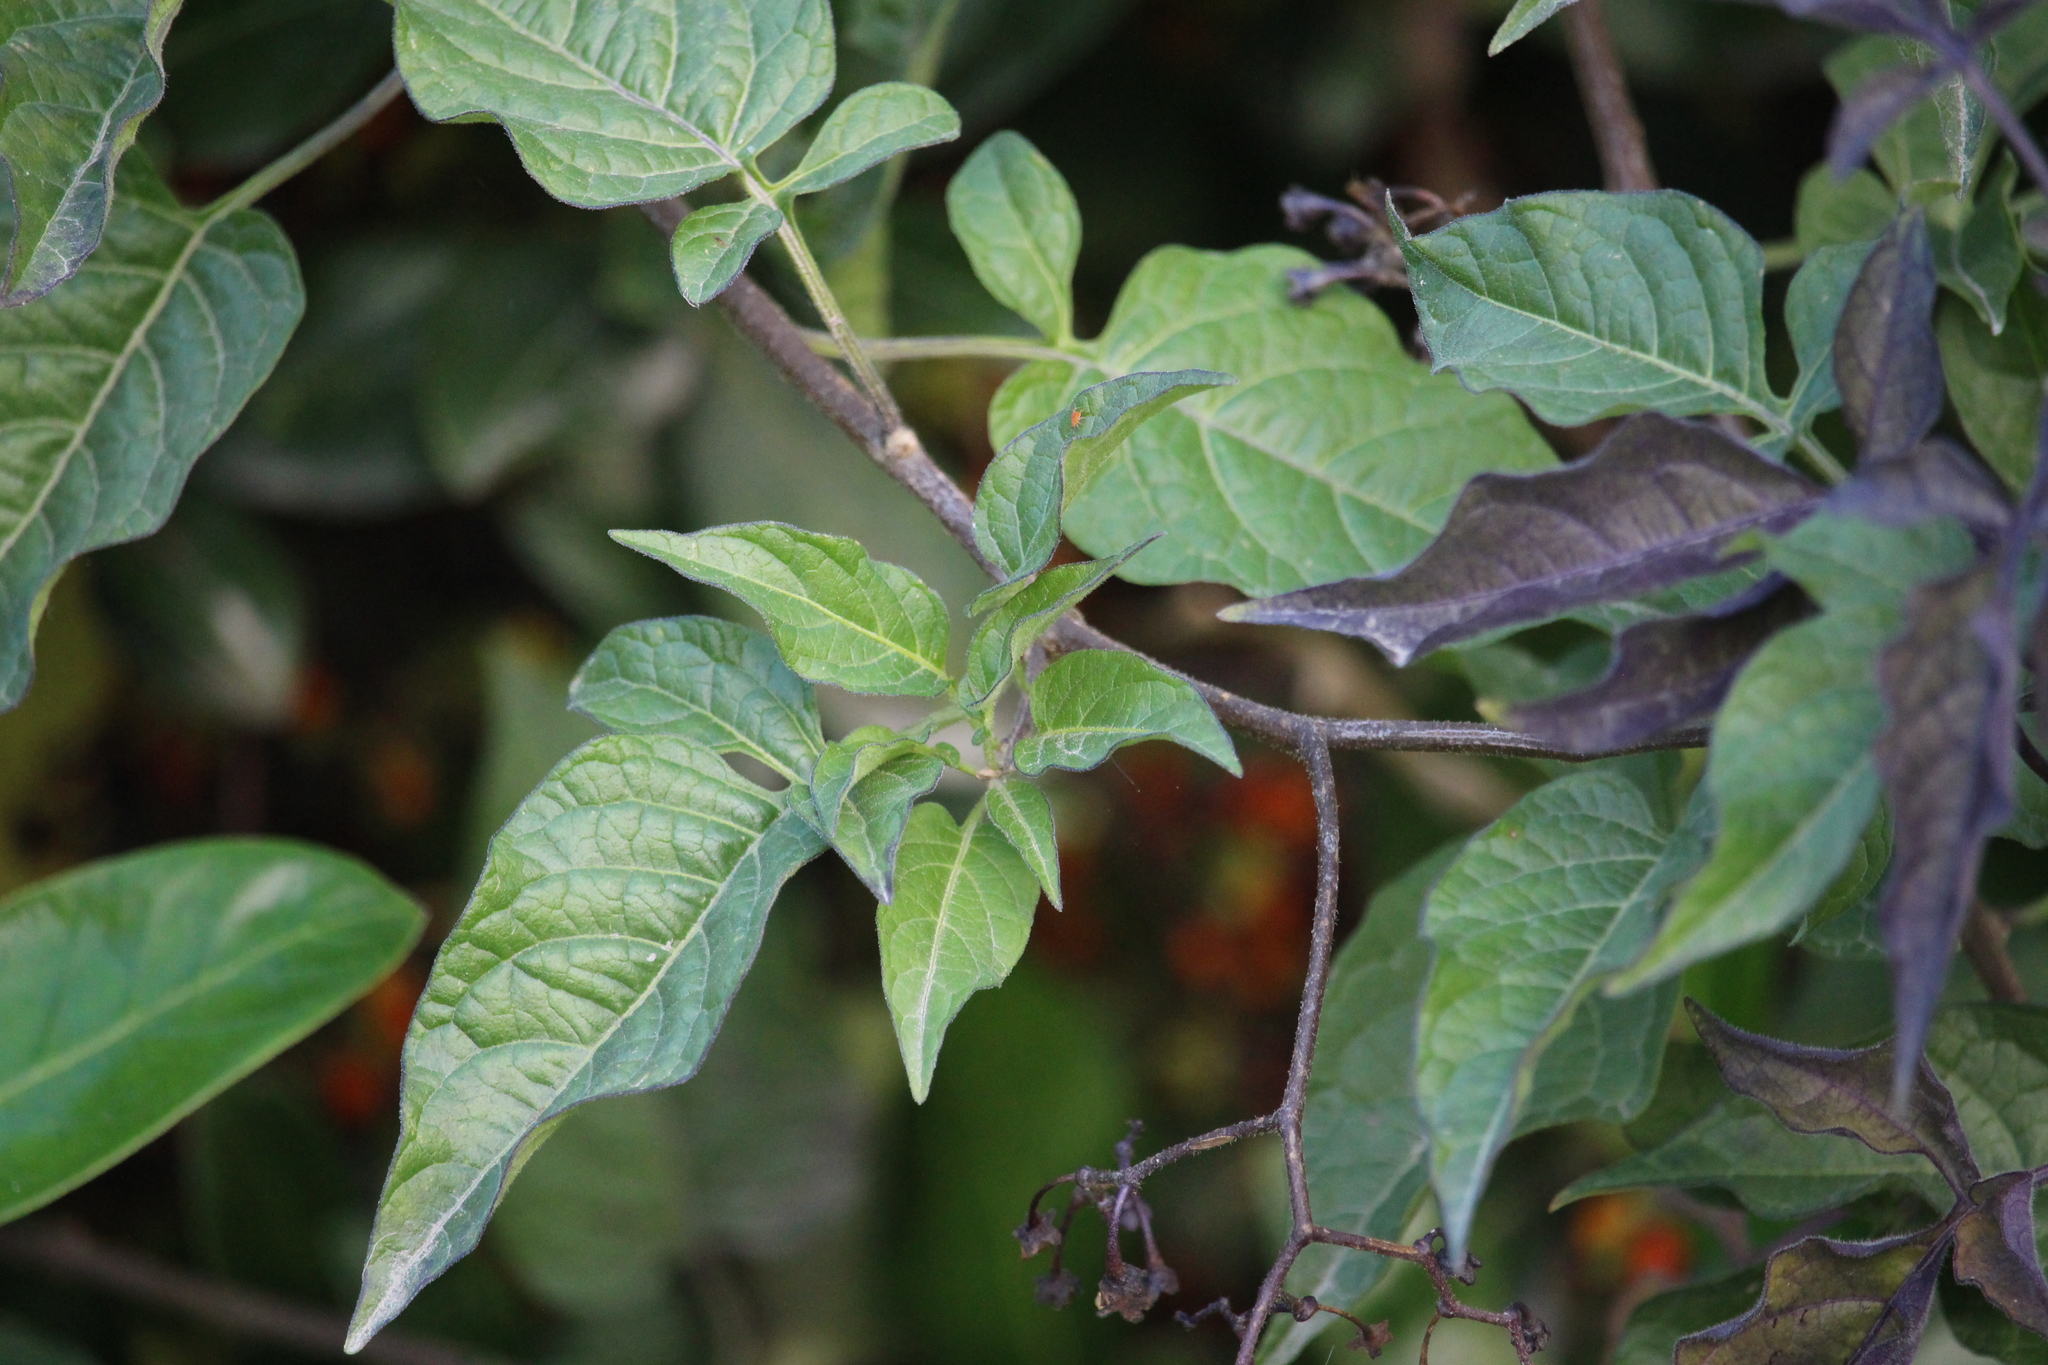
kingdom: Plantae
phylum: Tracheophyta
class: Magnoliopsida
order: Solanales
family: Solanaceae
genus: Solanum
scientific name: Solanum dulcamara
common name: Climbing nightshade
